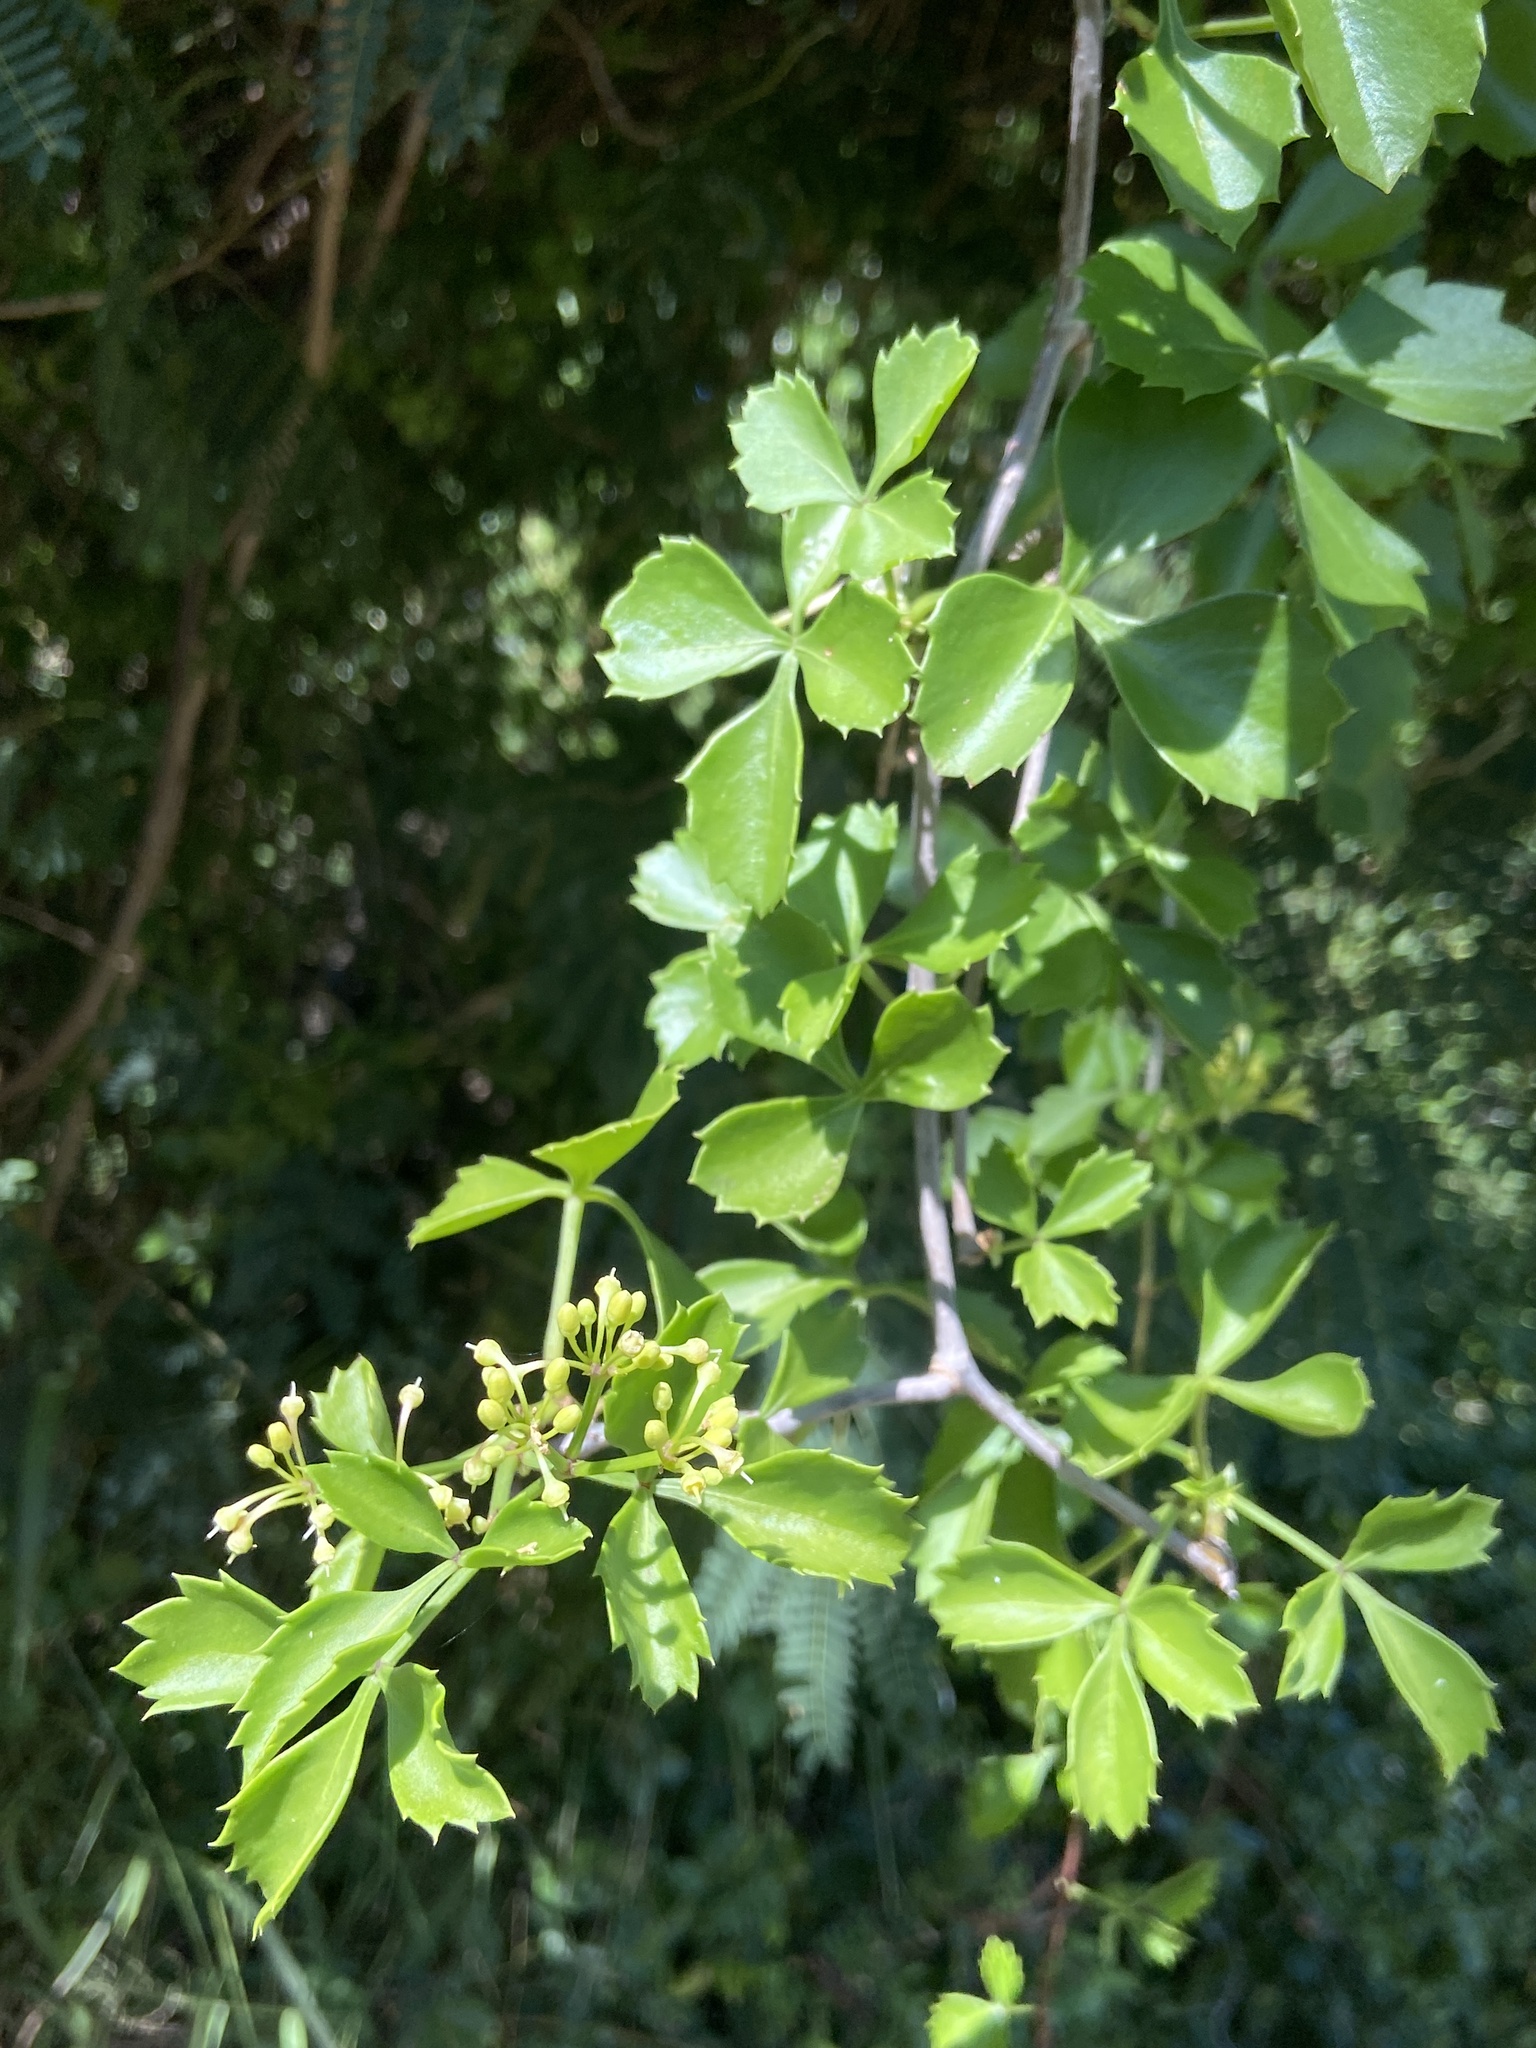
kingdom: Plantae
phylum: Tracheophyta
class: Magnoliopsida
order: Vitales
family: Vitaceae
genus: Cissus
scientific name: Cissus trifoliata
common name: Vine-sorrel
